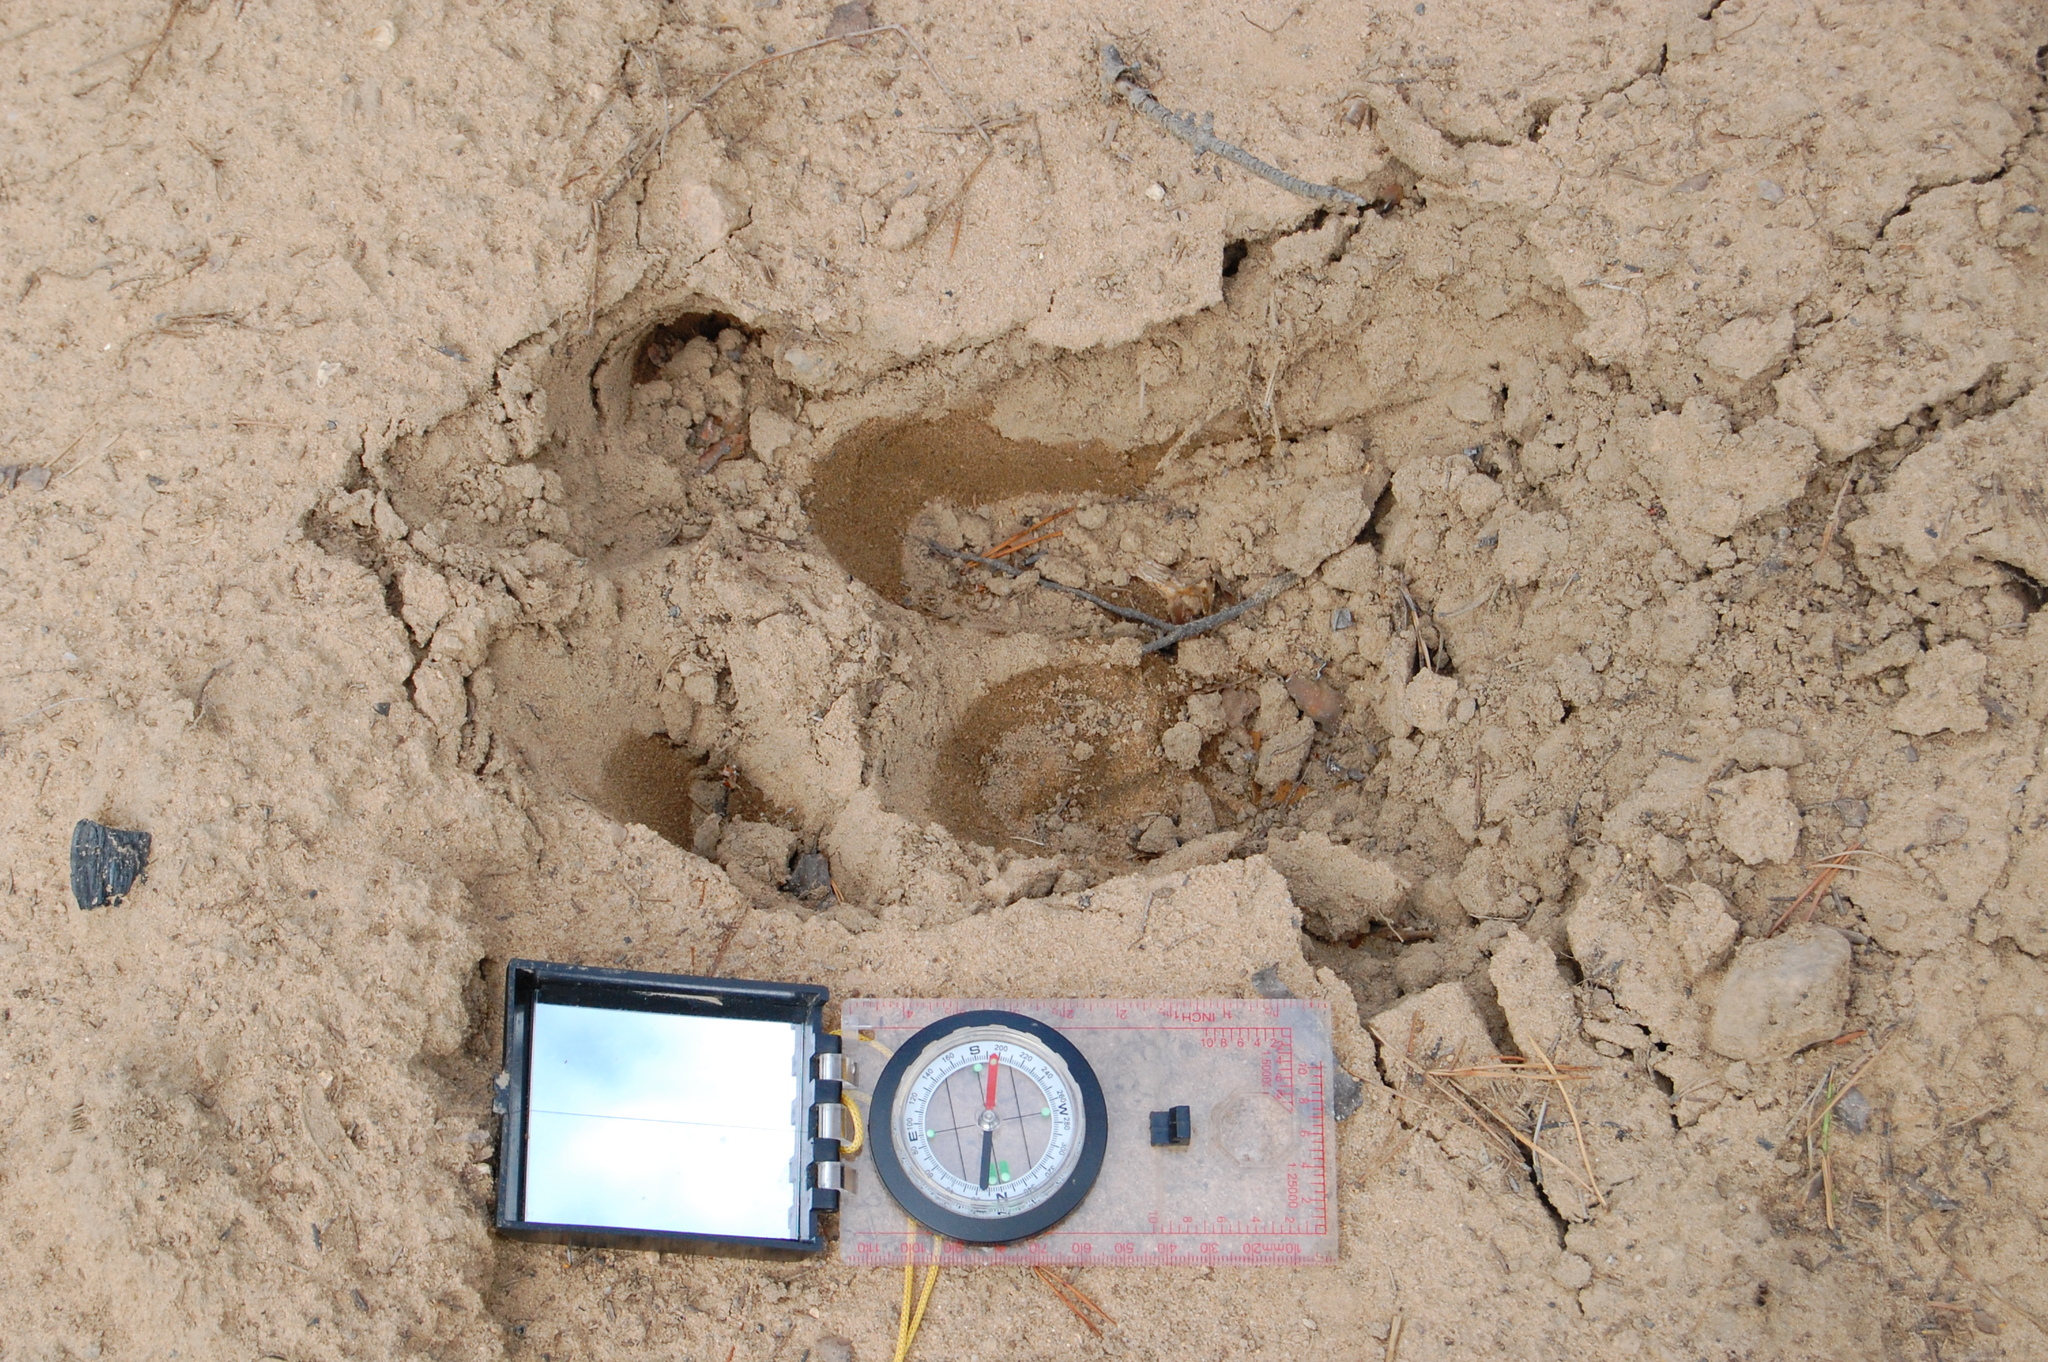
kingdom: Animalia
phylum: Chordata
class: Mammalia
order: Artiodactyla
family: Cervidae
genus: Alces
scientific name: Alces alces
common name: Moose
